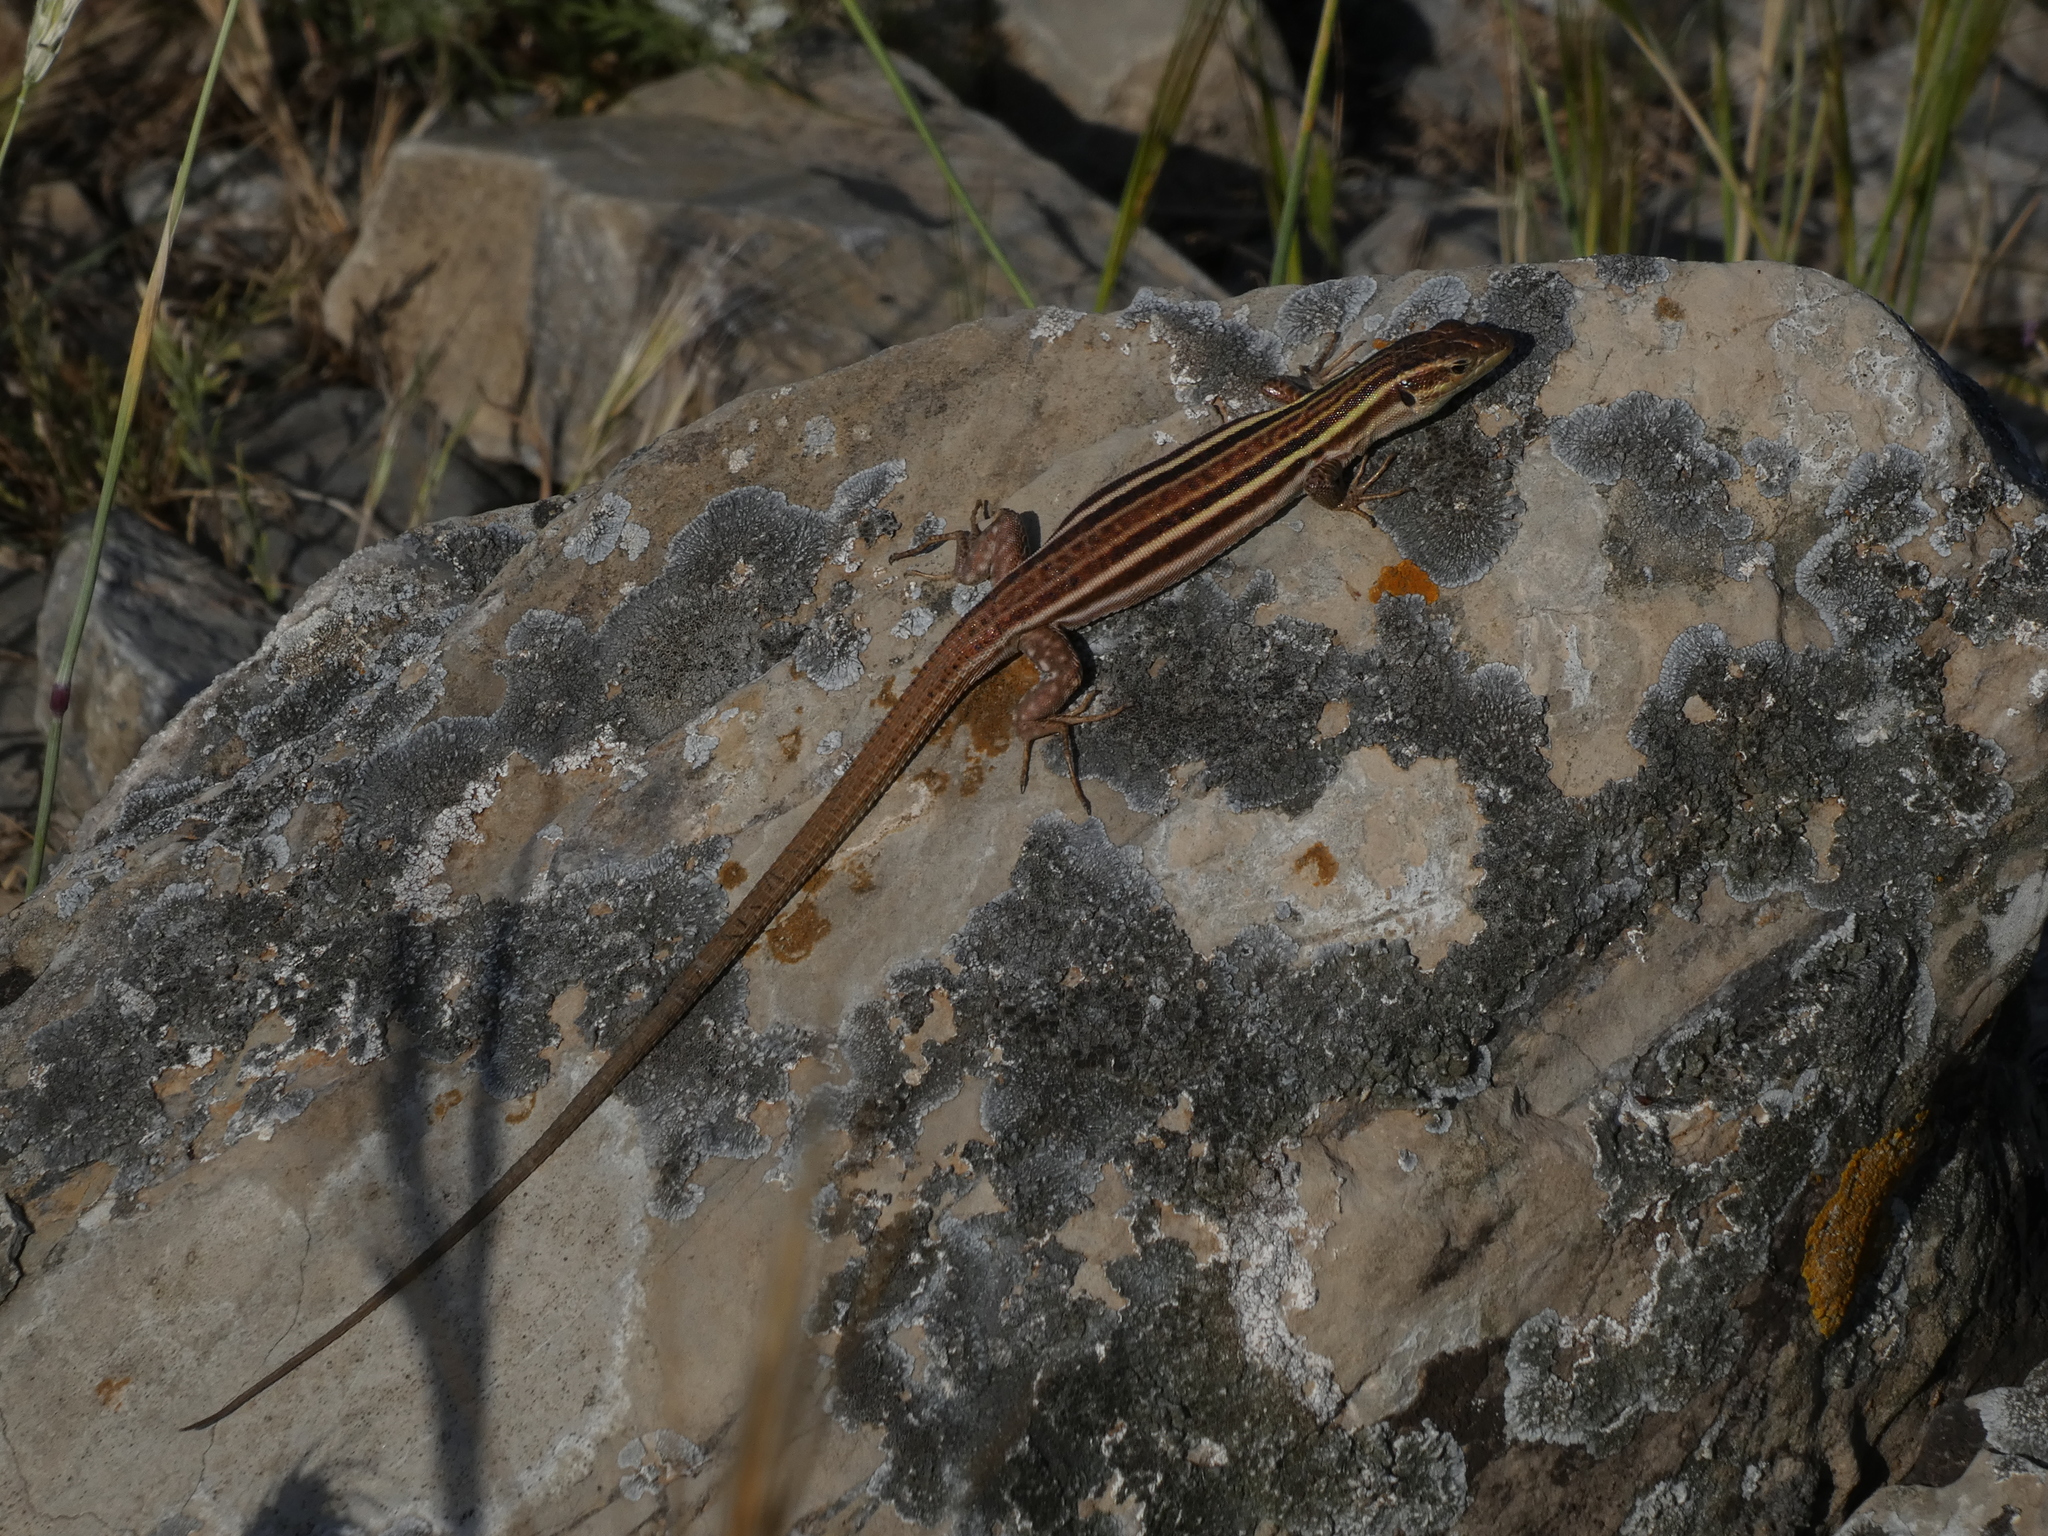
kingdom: Animalia
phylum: Chordata
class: Squamata
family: Lacertidae
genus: Podarcis
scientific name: Podarcis peloponnesiacus
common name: Peloponnese wall lizard
